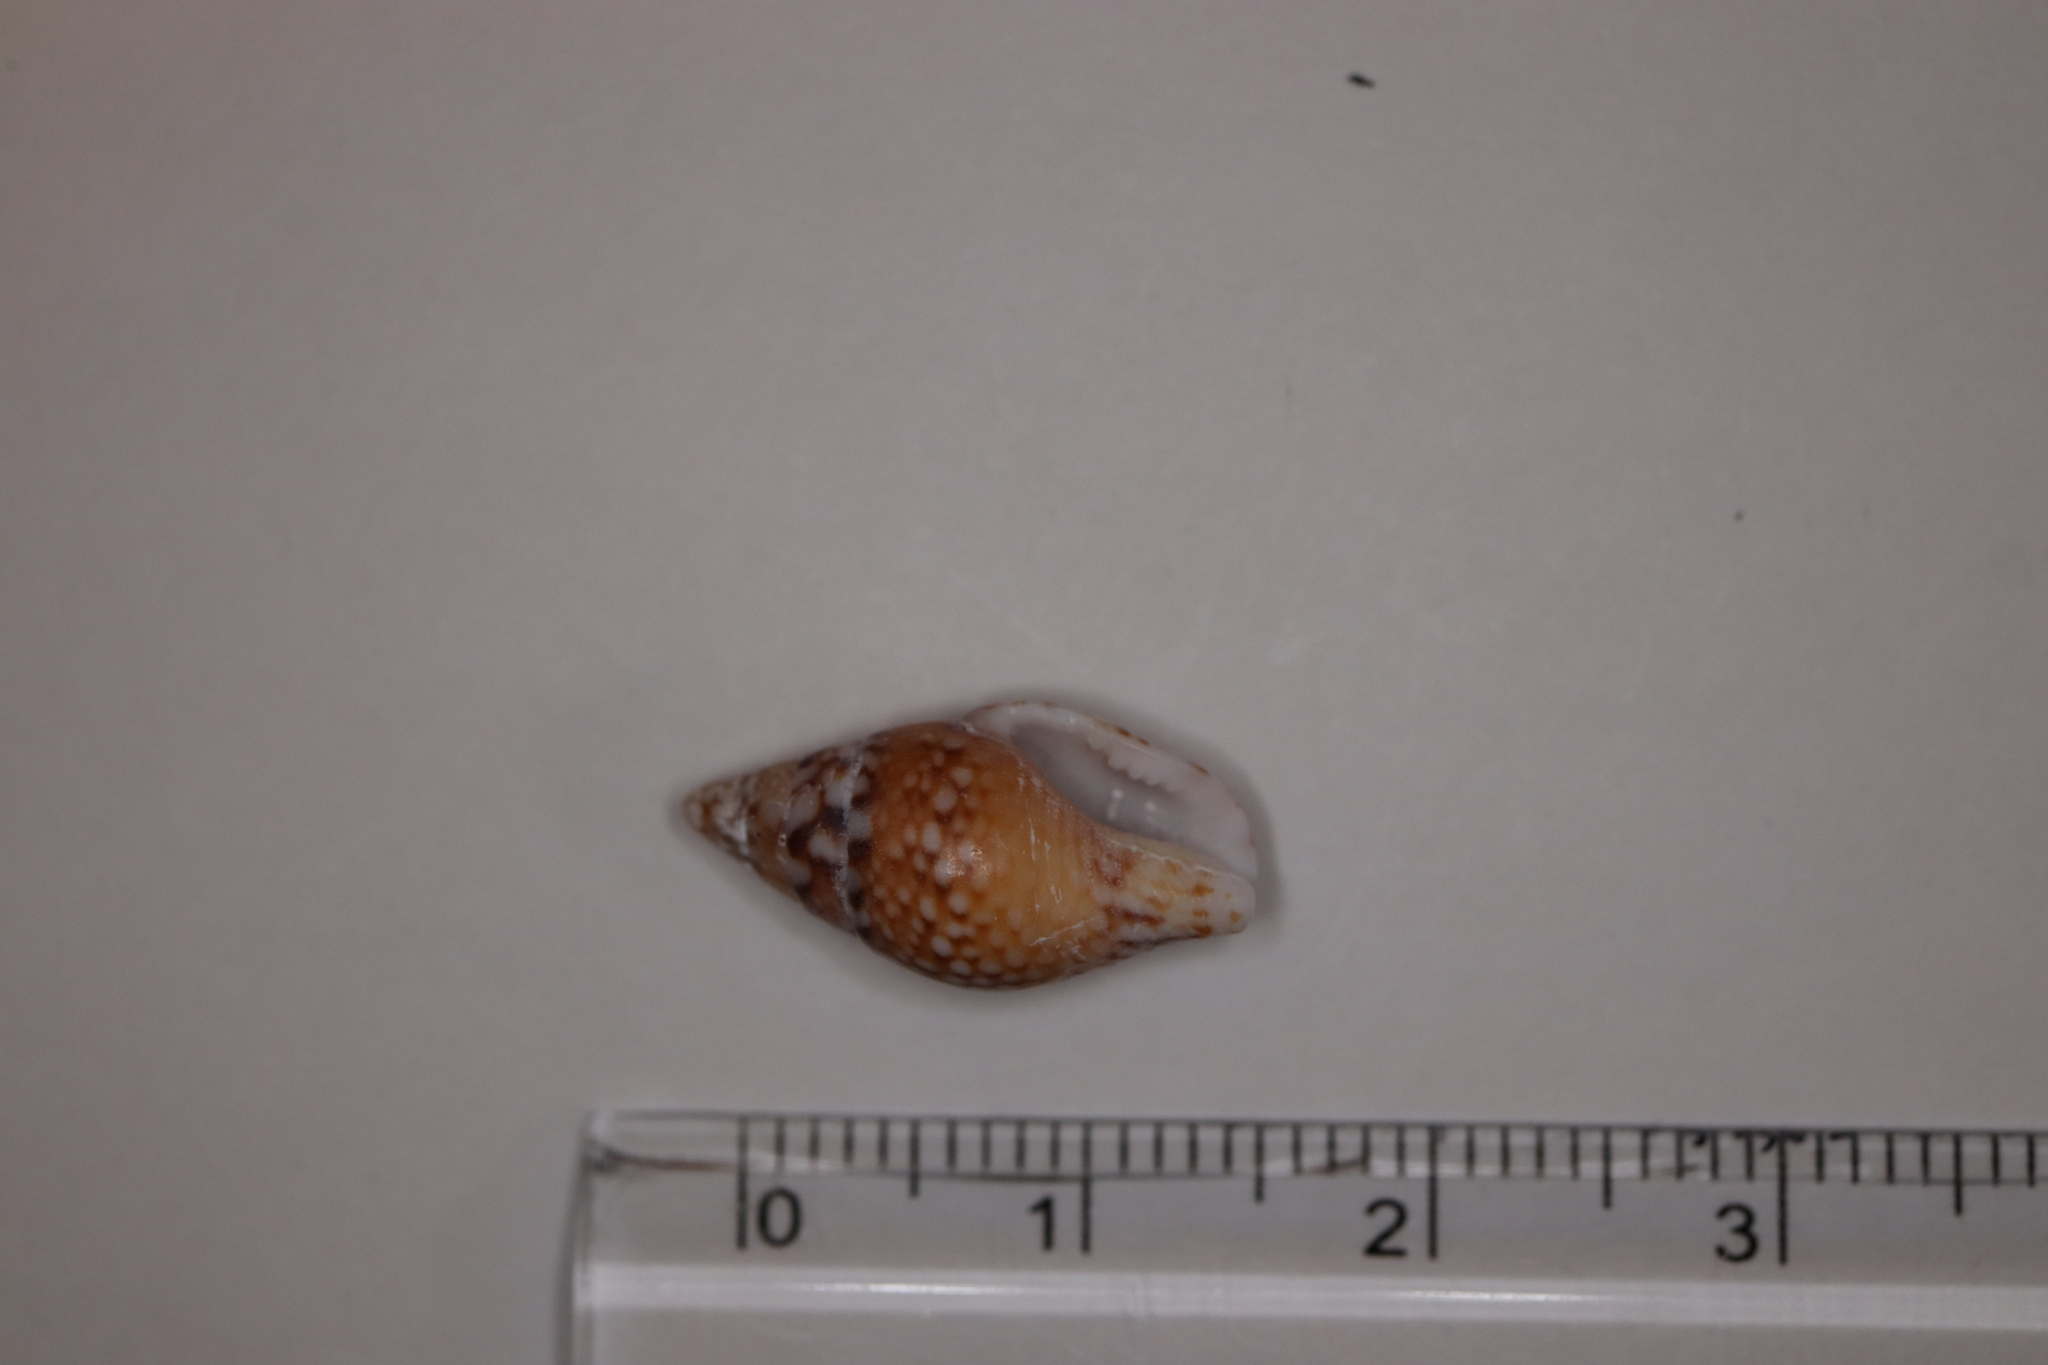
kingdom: Animalia
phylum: Mollusca
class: Gastropoda
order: Neogastropoda
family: Columbellidae
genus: Pardalinops de
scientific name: Pardalinops de Pardalinops testudinaria
